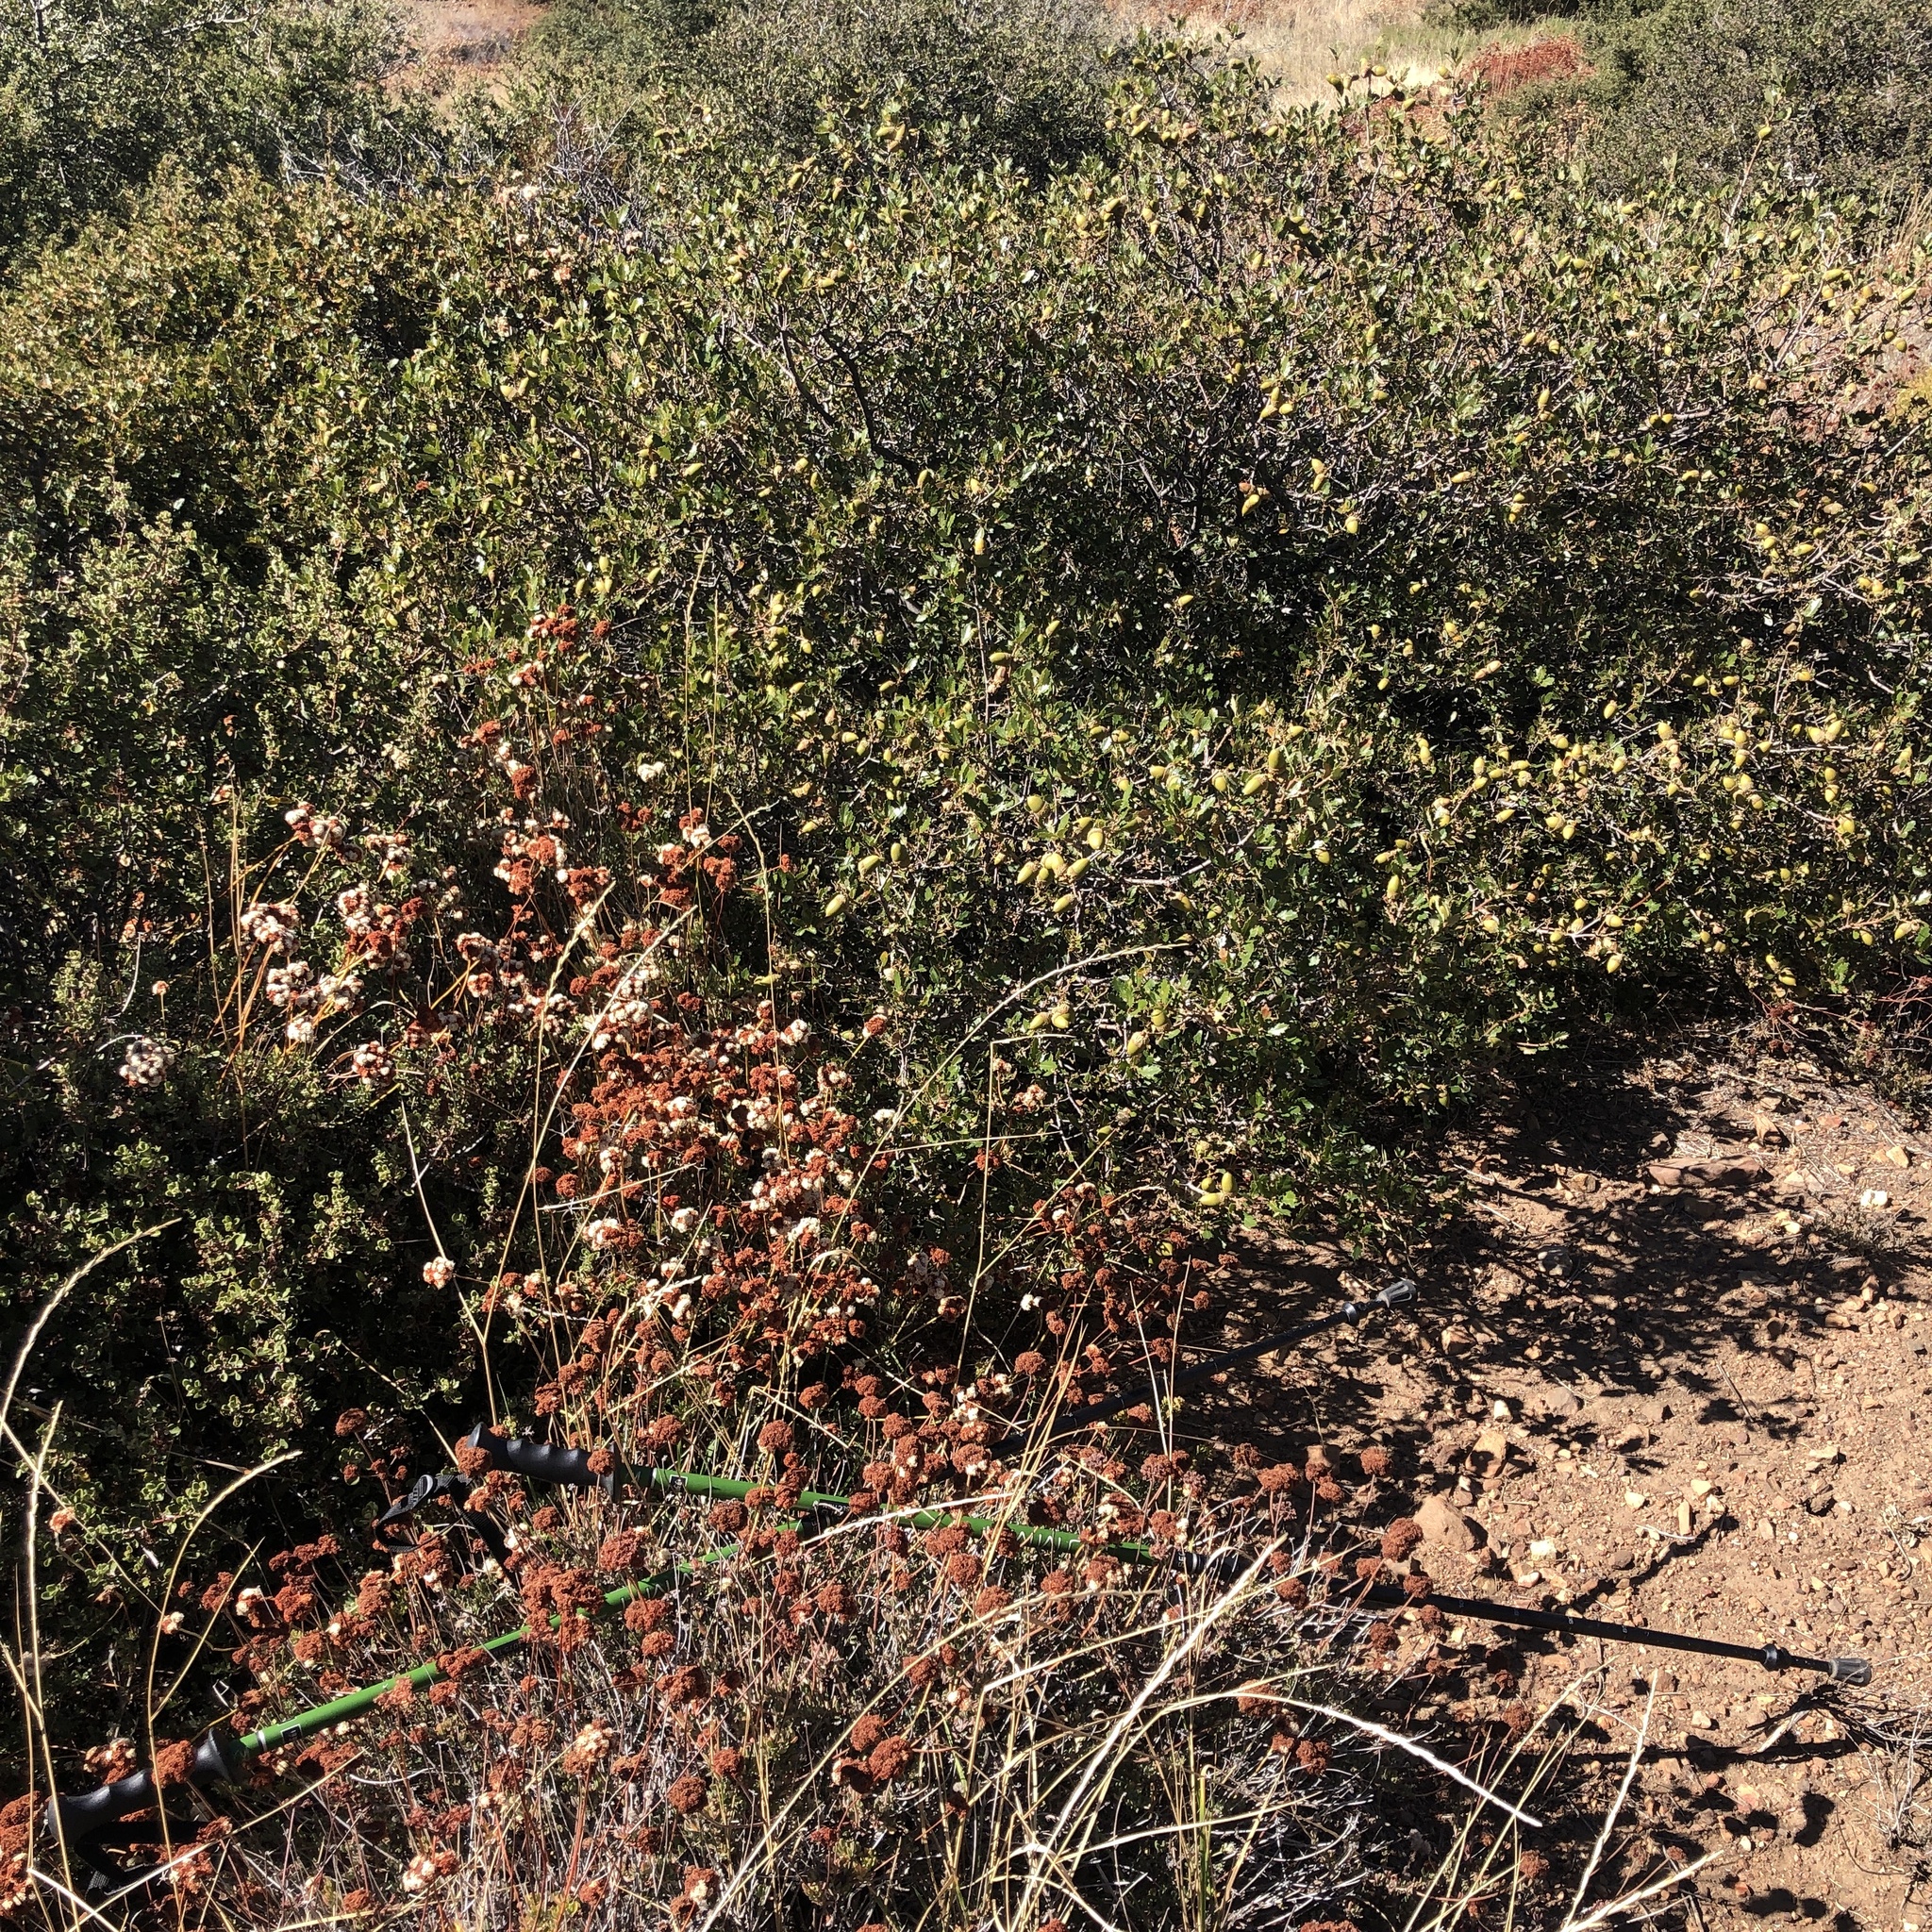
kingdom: Plantae
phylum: Tracheophyta
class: Magnoliopsida
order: Fagales
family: Fagaceae
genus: Quercus
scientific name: Quercus berberidifolia
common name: California scrub oak
